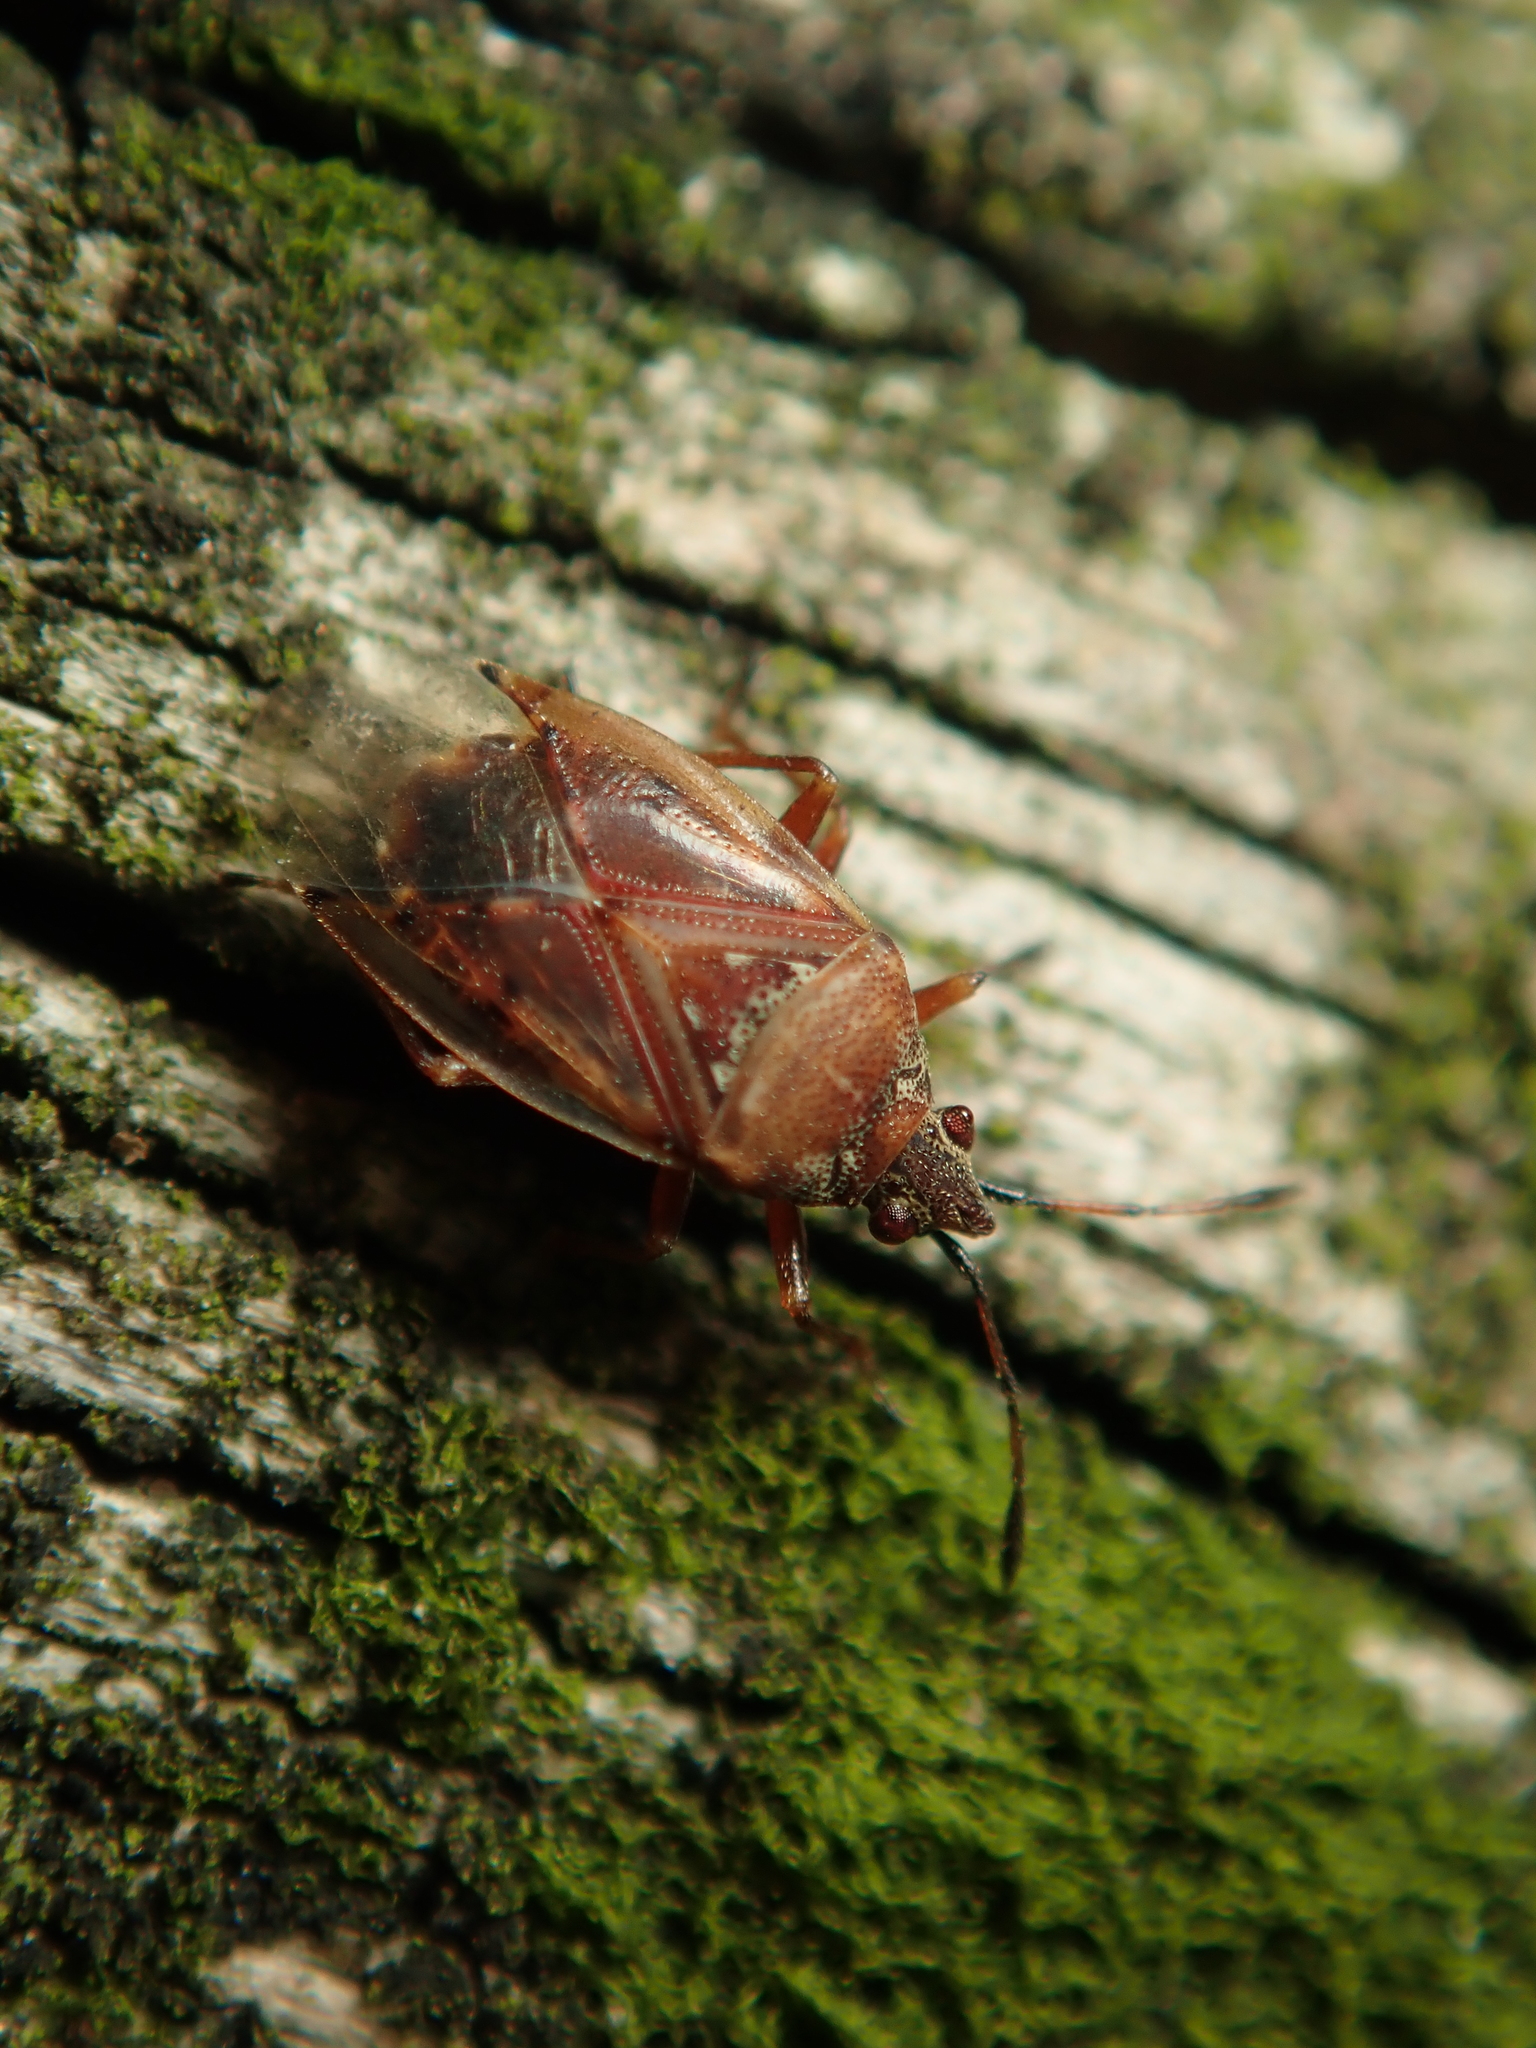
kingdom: Animalia
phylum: Arthropoda
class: Insecta
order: Hemiptera
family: Lygaeidae
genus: Kleidocerys
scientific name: Kleidocerys resedae
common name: Birch catkin bug
